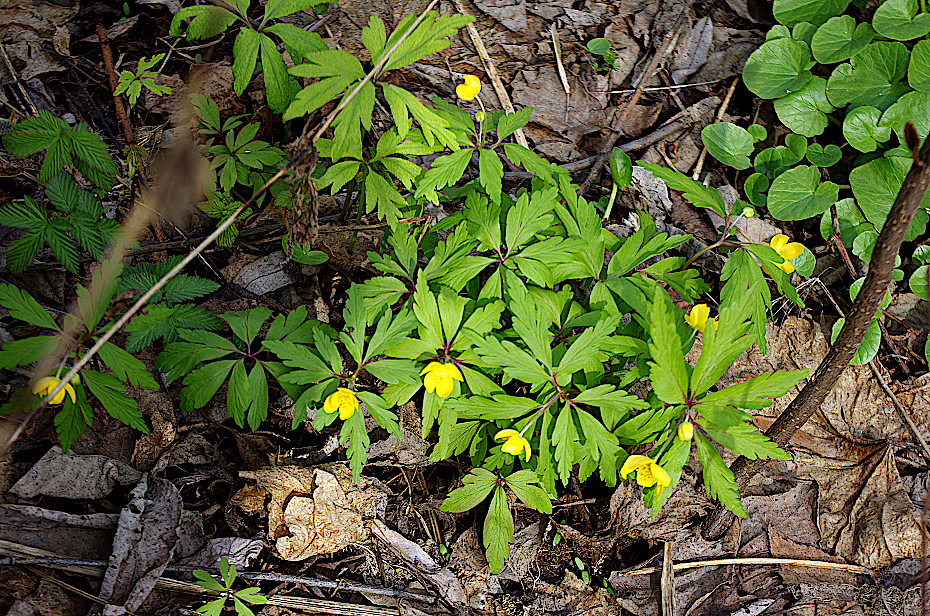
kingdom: Plantae
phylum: Tracheophyta
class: Magnoliopsida
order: Ranunculales
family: Ranunculaceae
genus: Anemone
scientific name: Anemone ranunculoides
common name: Yellow anemone
